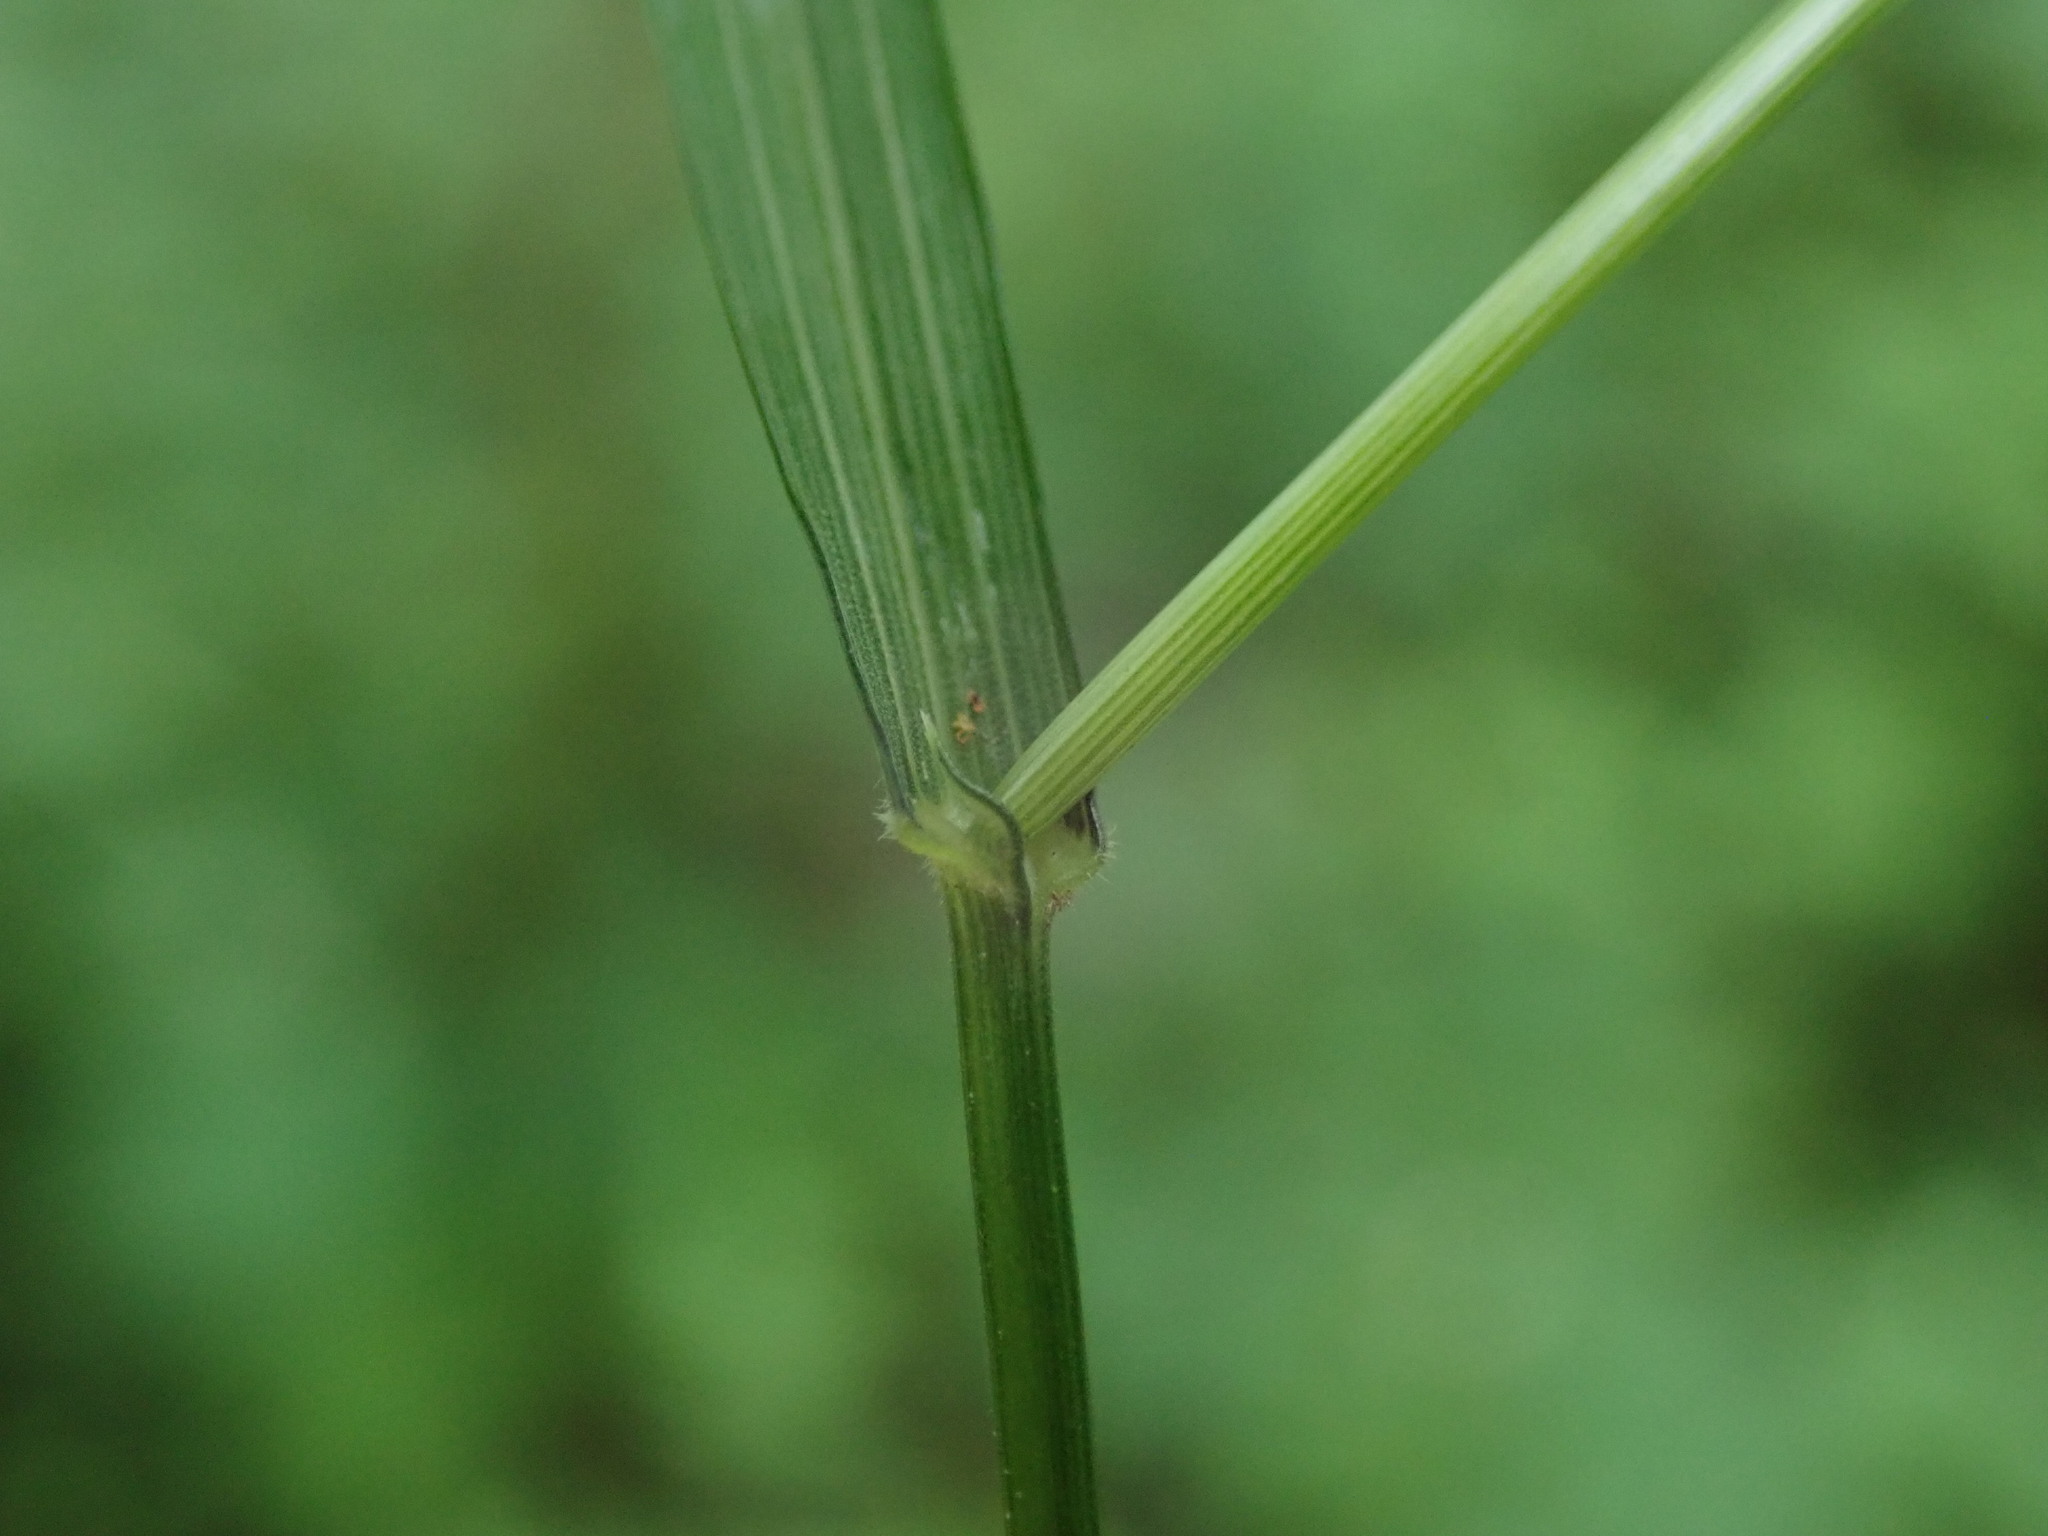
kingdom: Plantae
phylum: Tracheophyta
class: Liliopsida
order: Poales
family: Poaceae
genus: Melica
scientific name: Melica uniflora
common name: Wood melick
